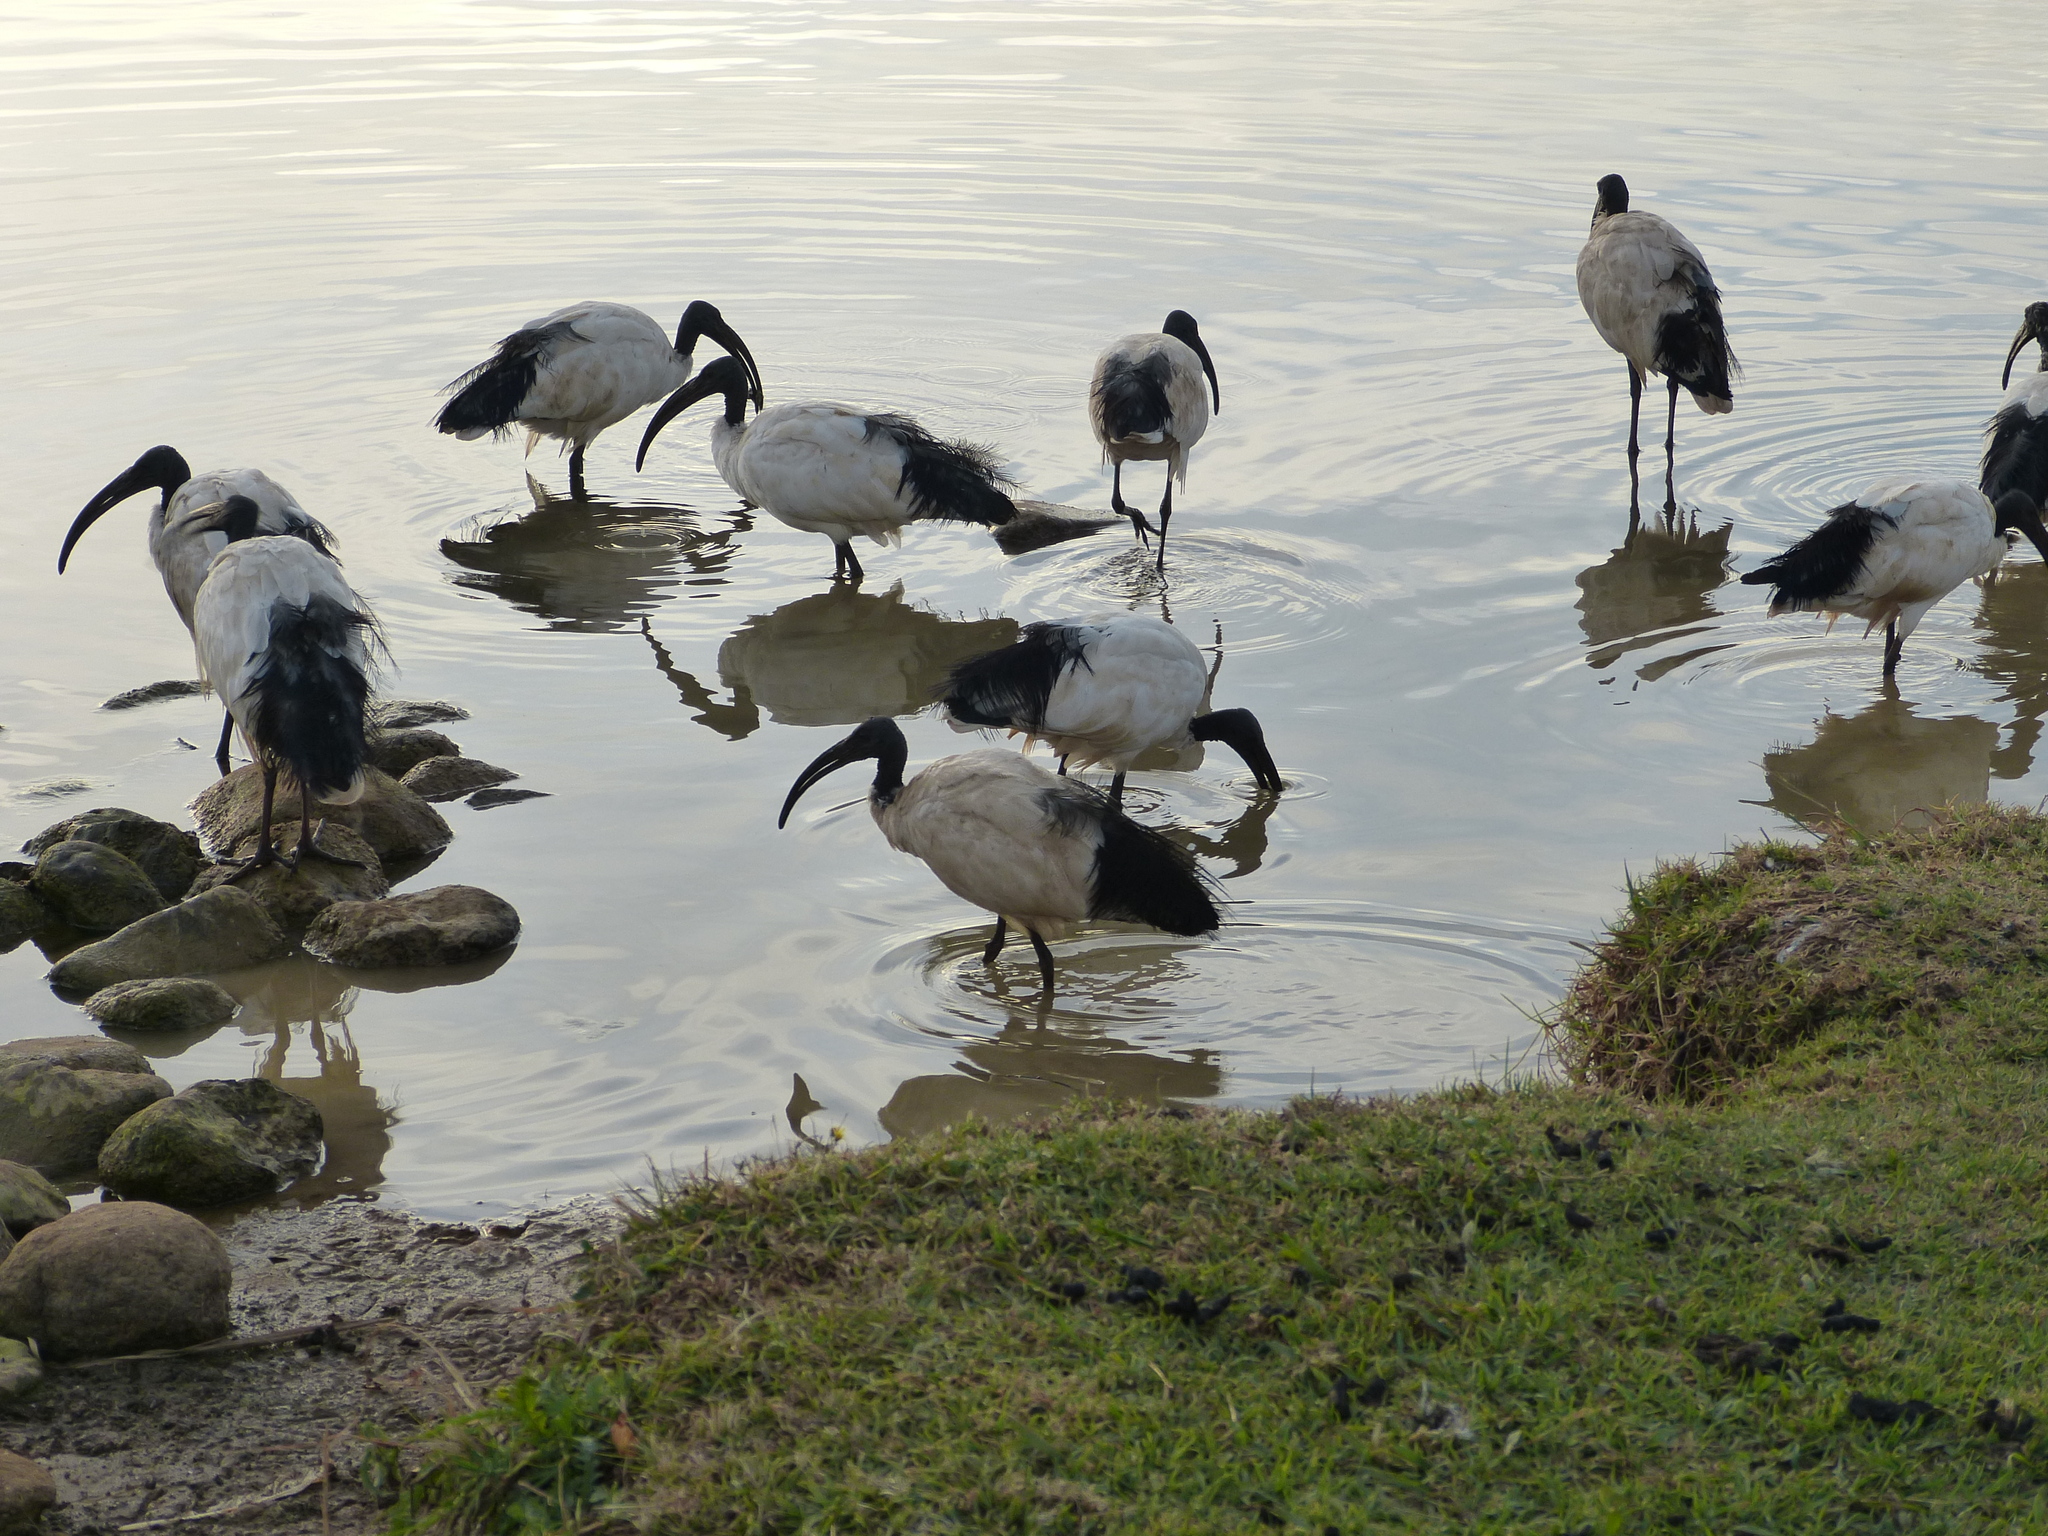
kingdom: Animalia
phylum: Chordata
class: Aves
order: Pelecaniformes
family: Threskiornithidae
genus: Threskiornis
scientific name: Threskiornis aethiopicus
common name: Sacred ibis
